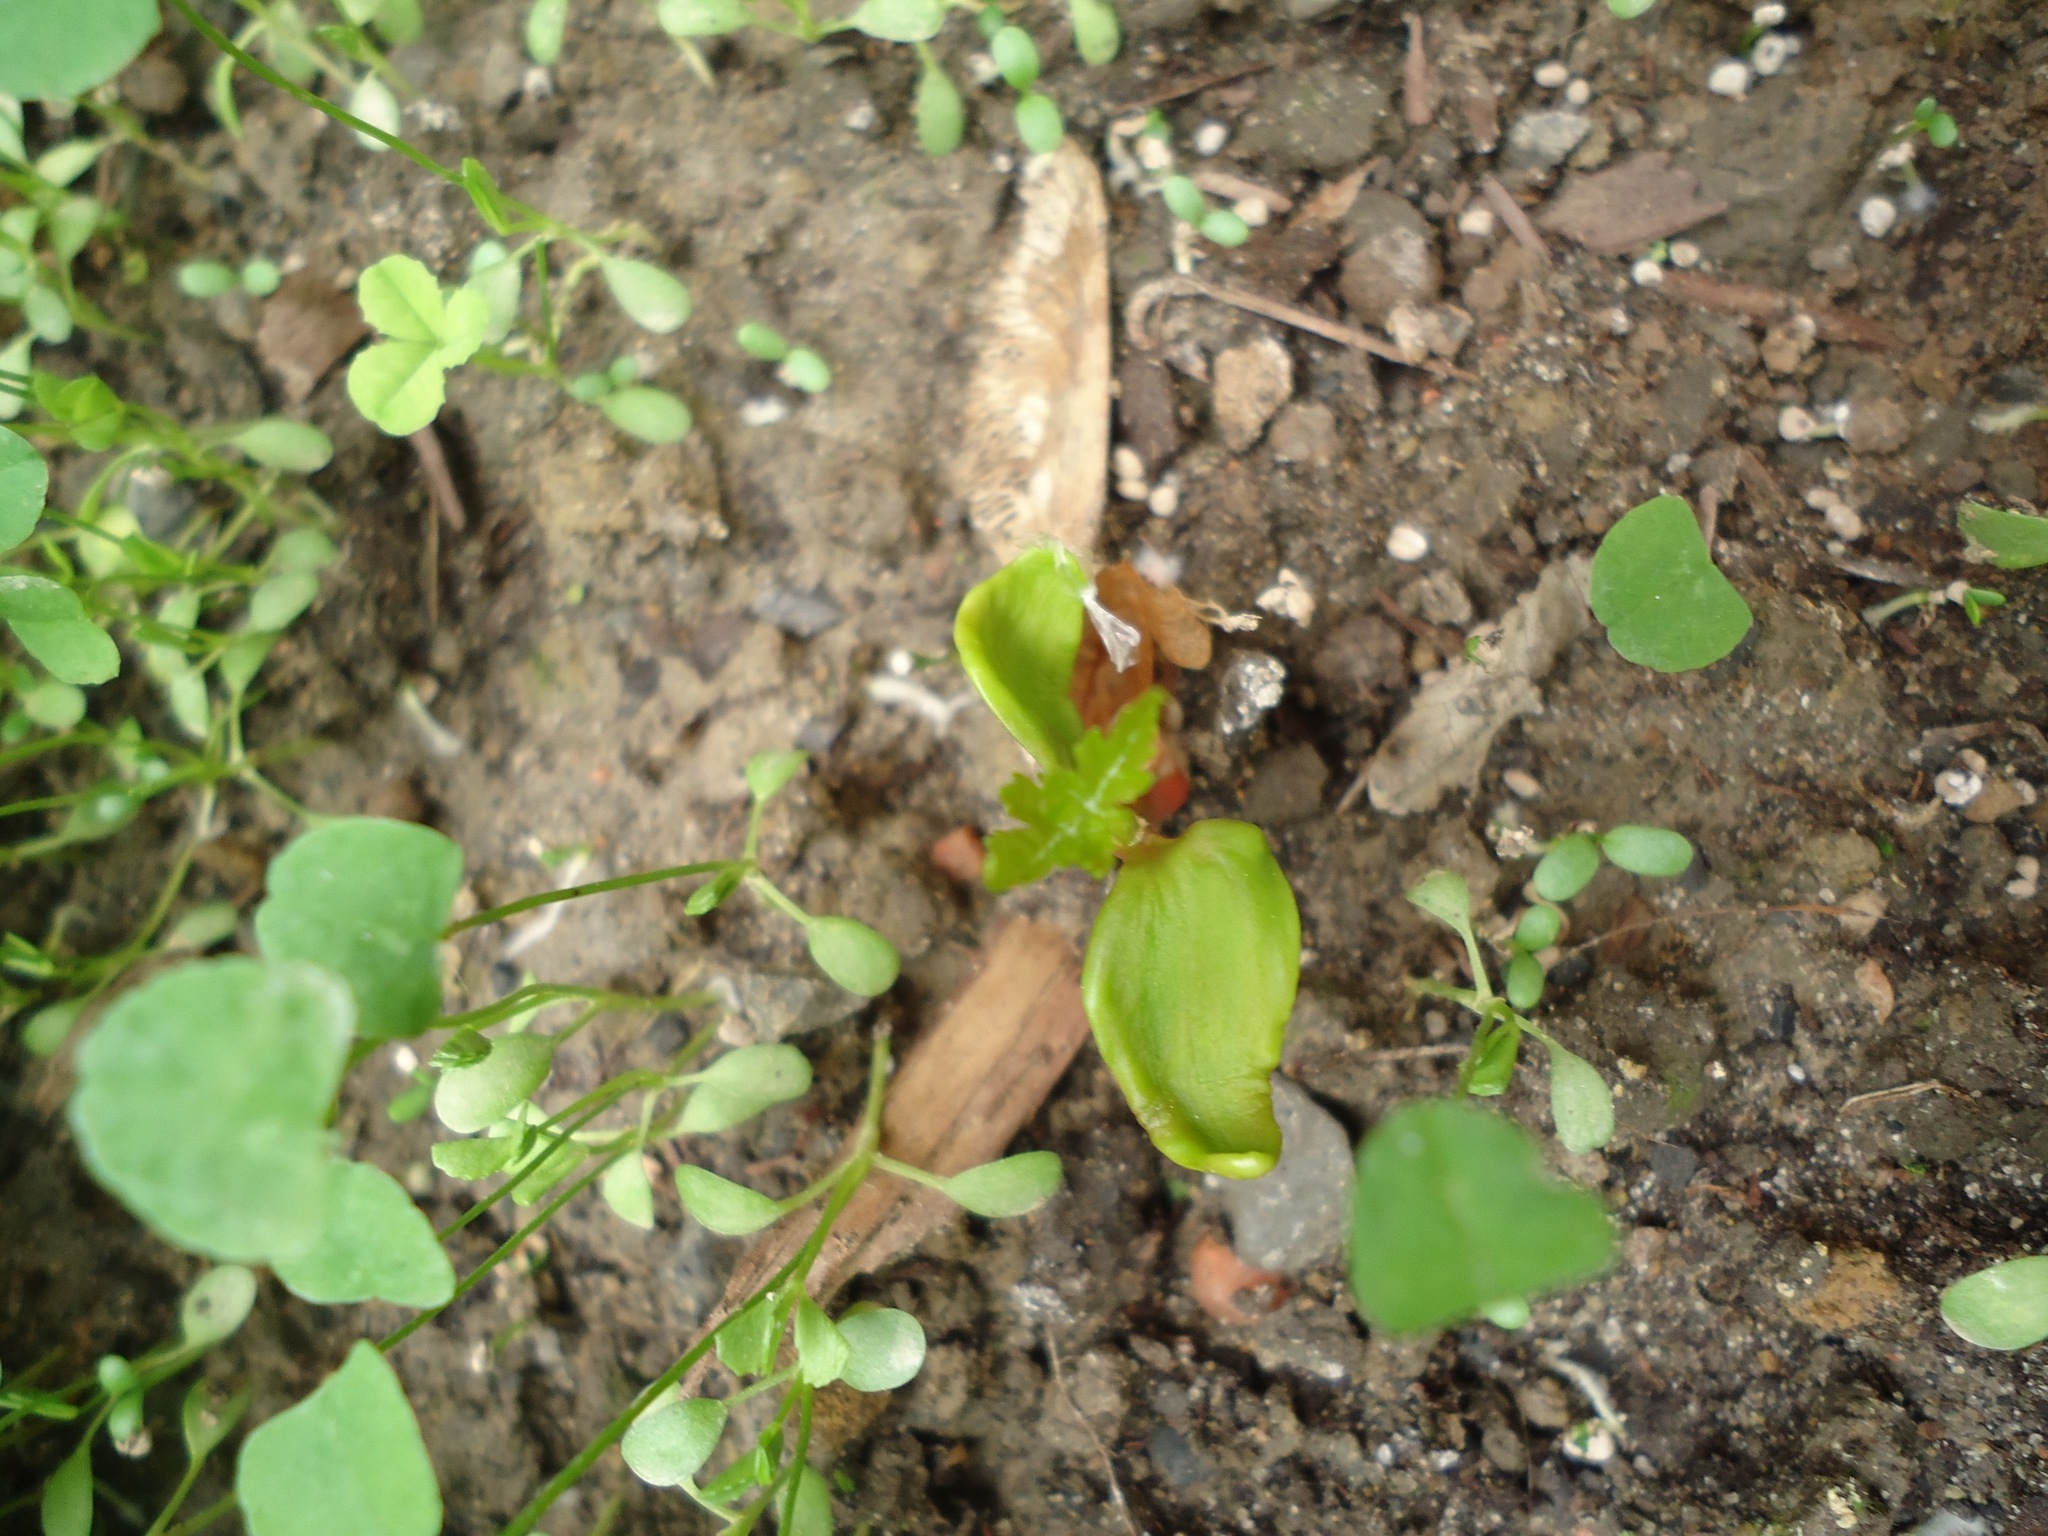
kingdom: Plantae
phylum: Tracheophyta
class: Magnoliopsida
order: Sapindales
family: Sapindaceae
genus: Acer
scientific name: Acer rubrum
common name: Red maple
